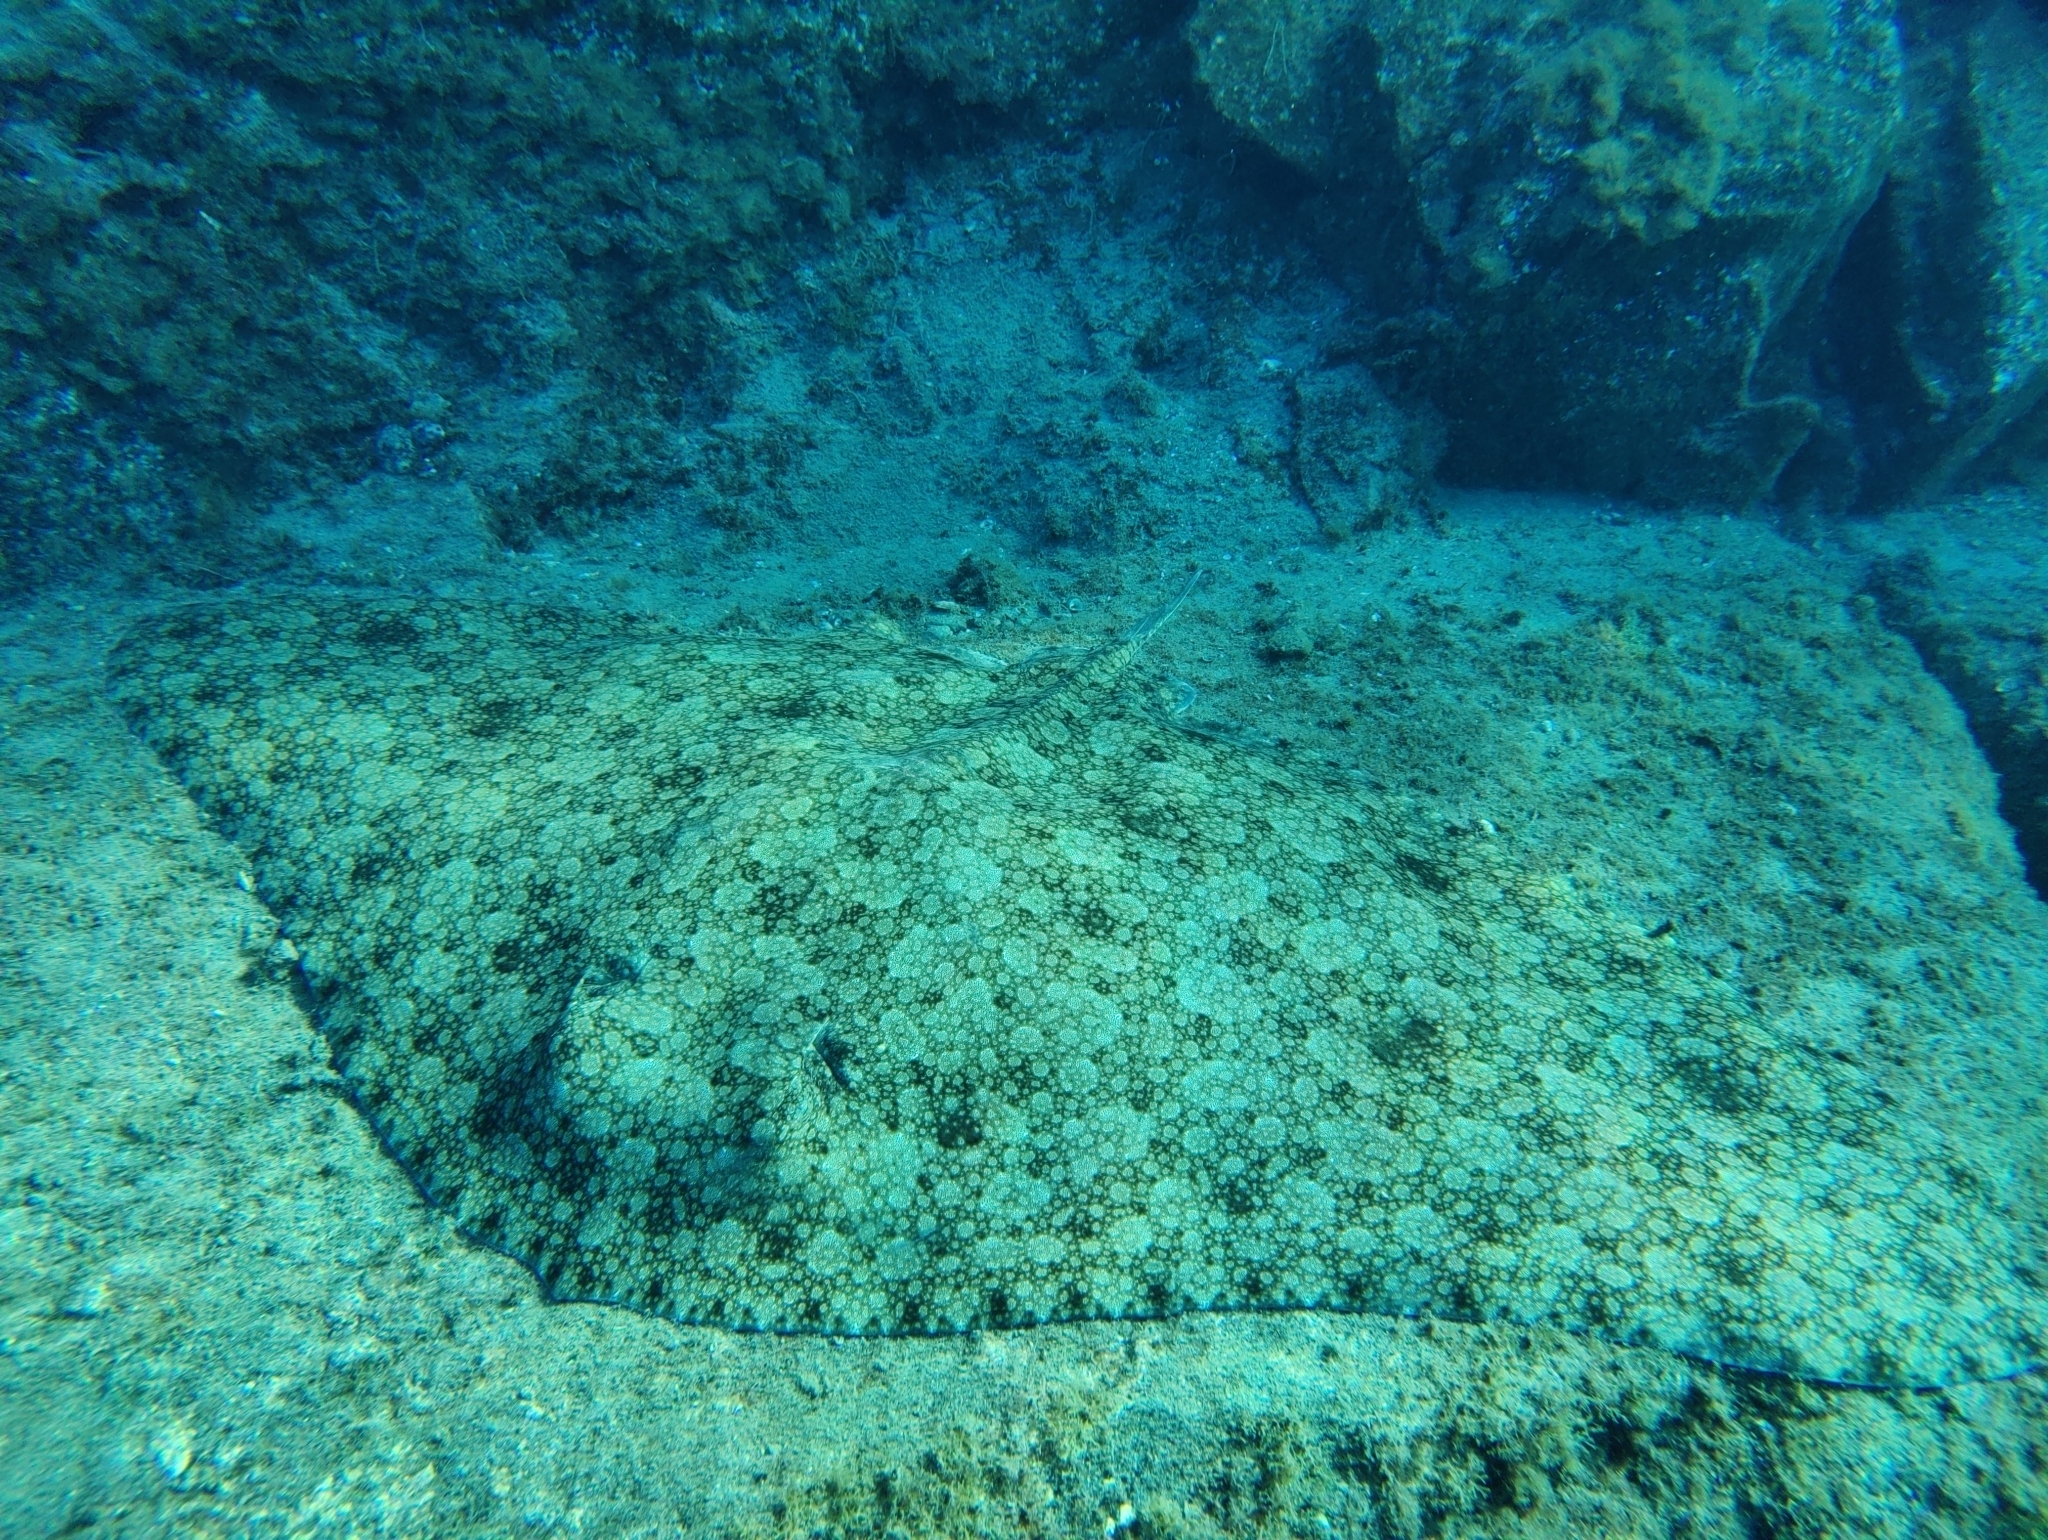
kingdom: Animalia
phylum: Chordata
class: Elasmobranchii
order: Myliobatiformes
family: Gymnuridae
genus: Gymnura
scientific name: Gymnura altavela
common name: Spiny butterfly ray
